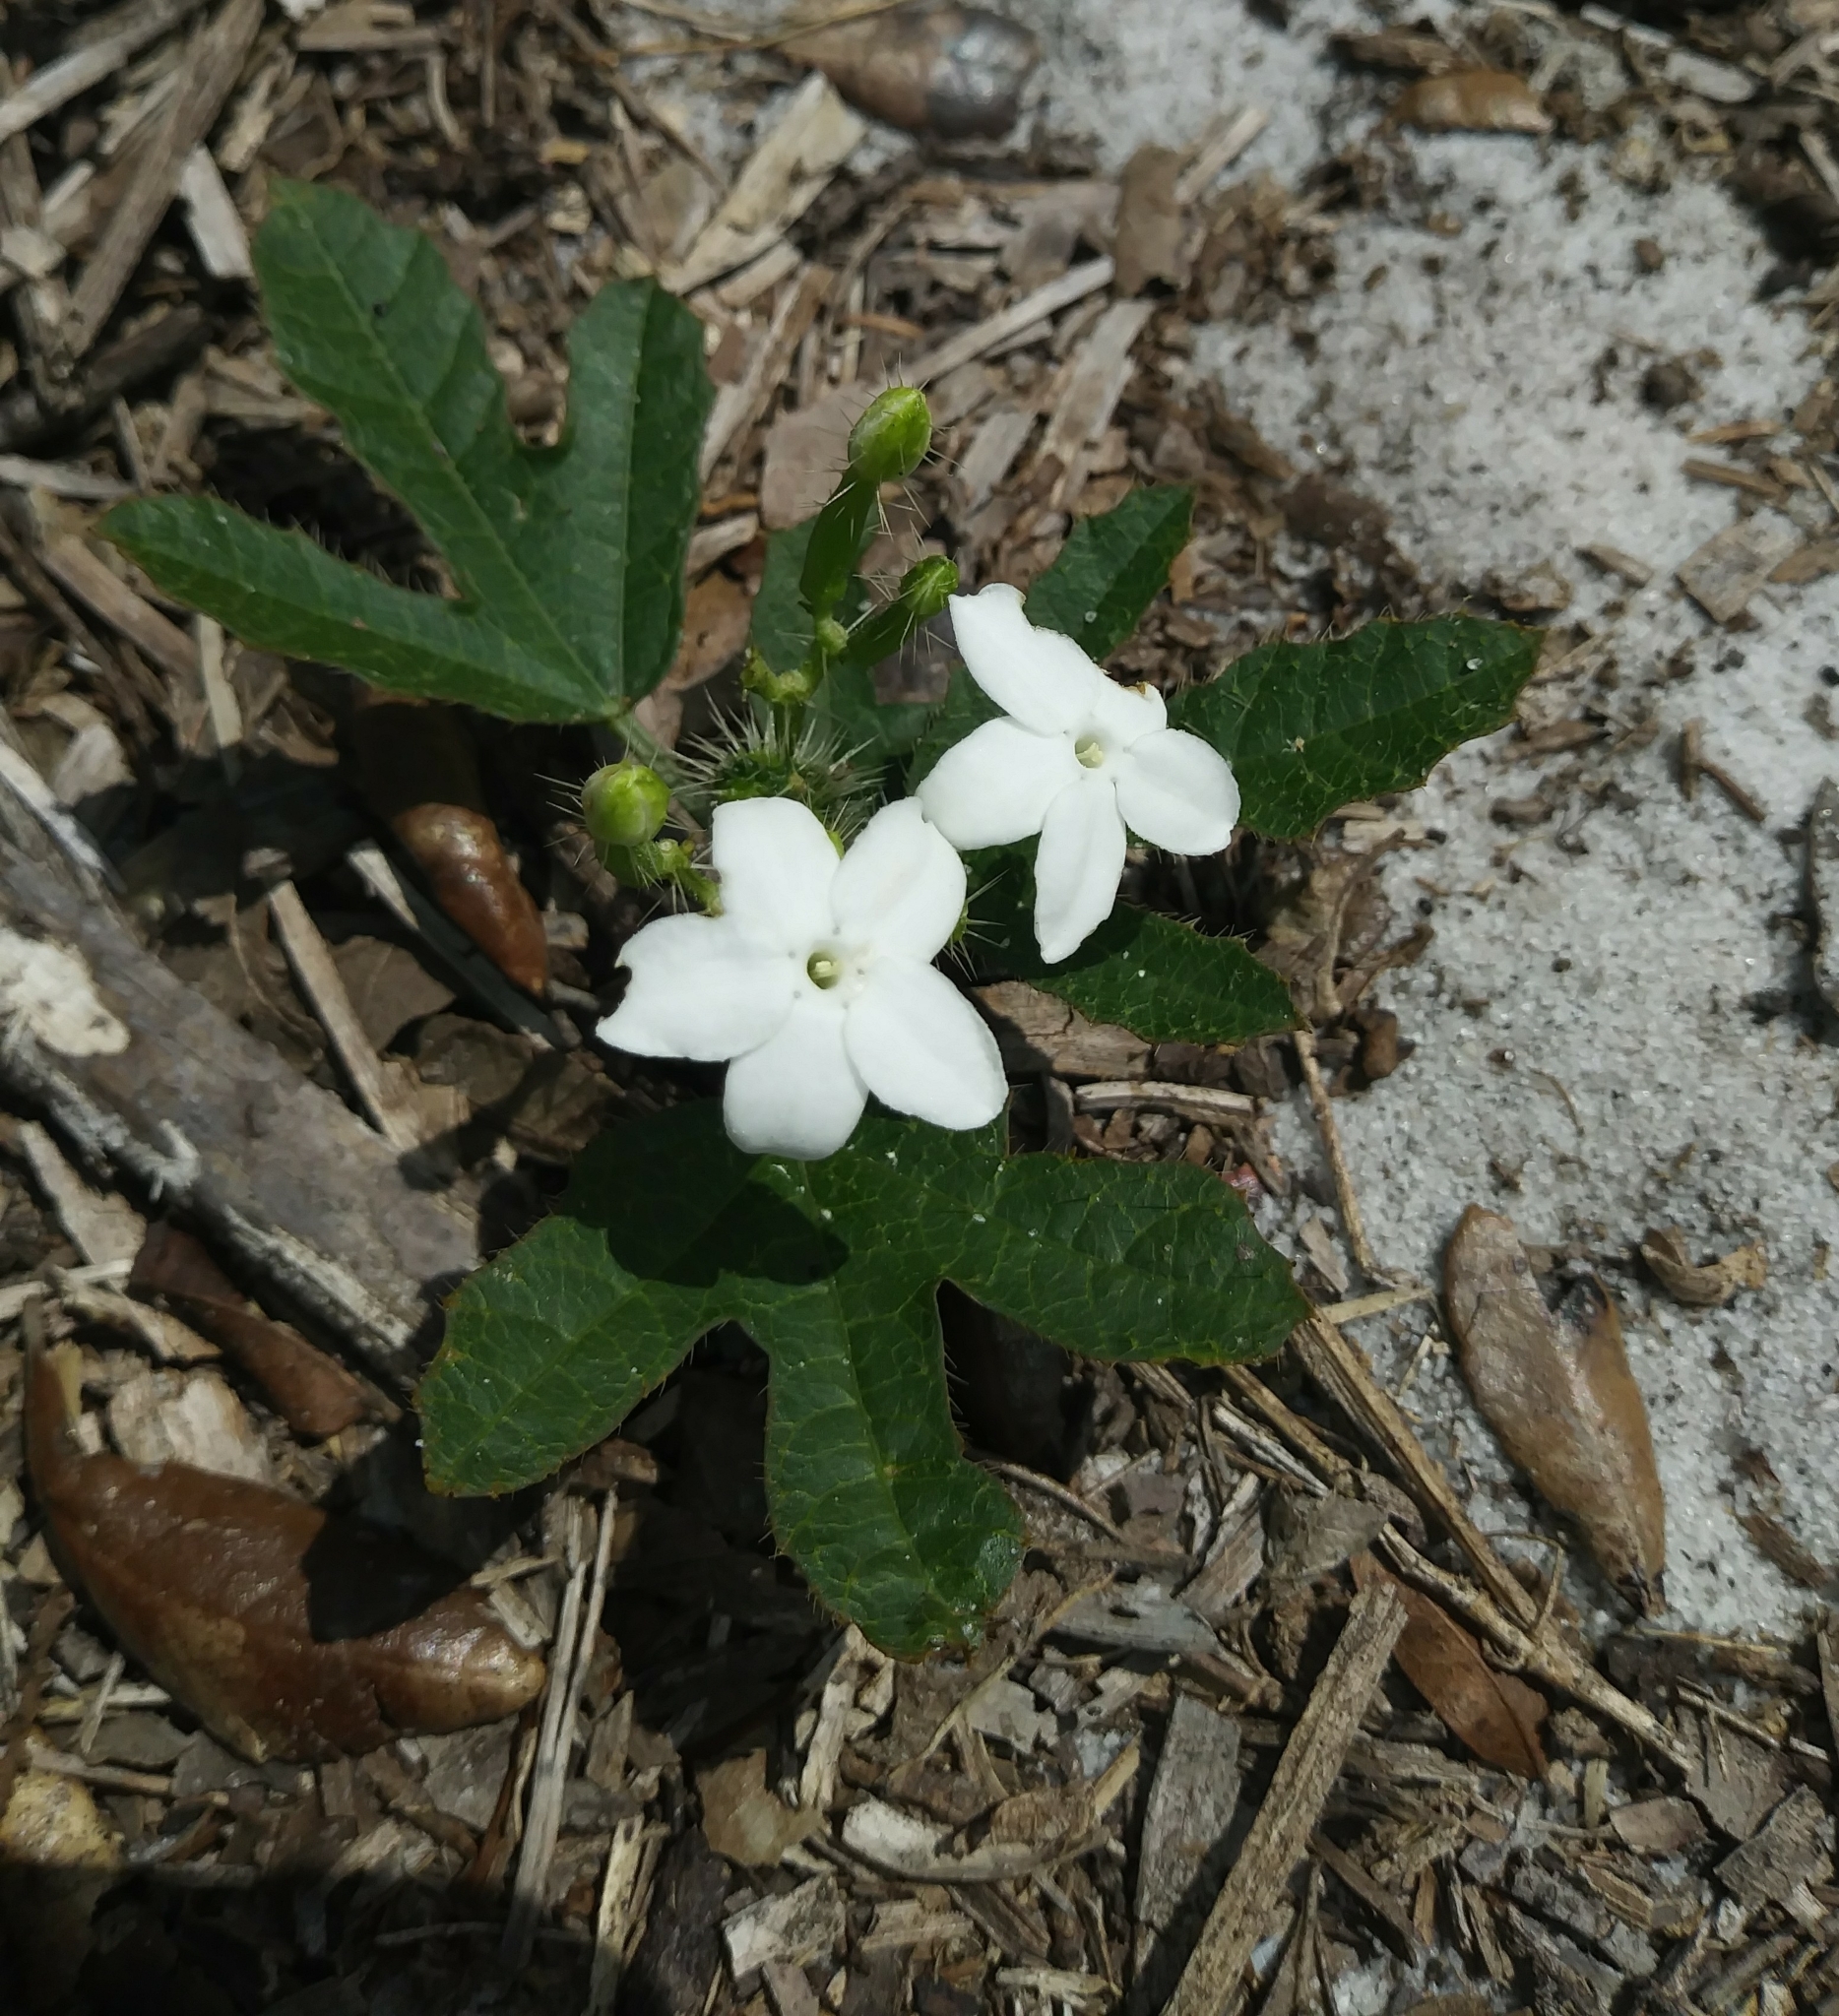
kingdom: Plantae
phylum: Tracheophyta
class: Magnoliopsida
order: Malpighiales
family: Euphorbiaceae
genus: Cnidoscolus
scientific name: Cnidoscolus stimulosus
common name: Bull-nettle
